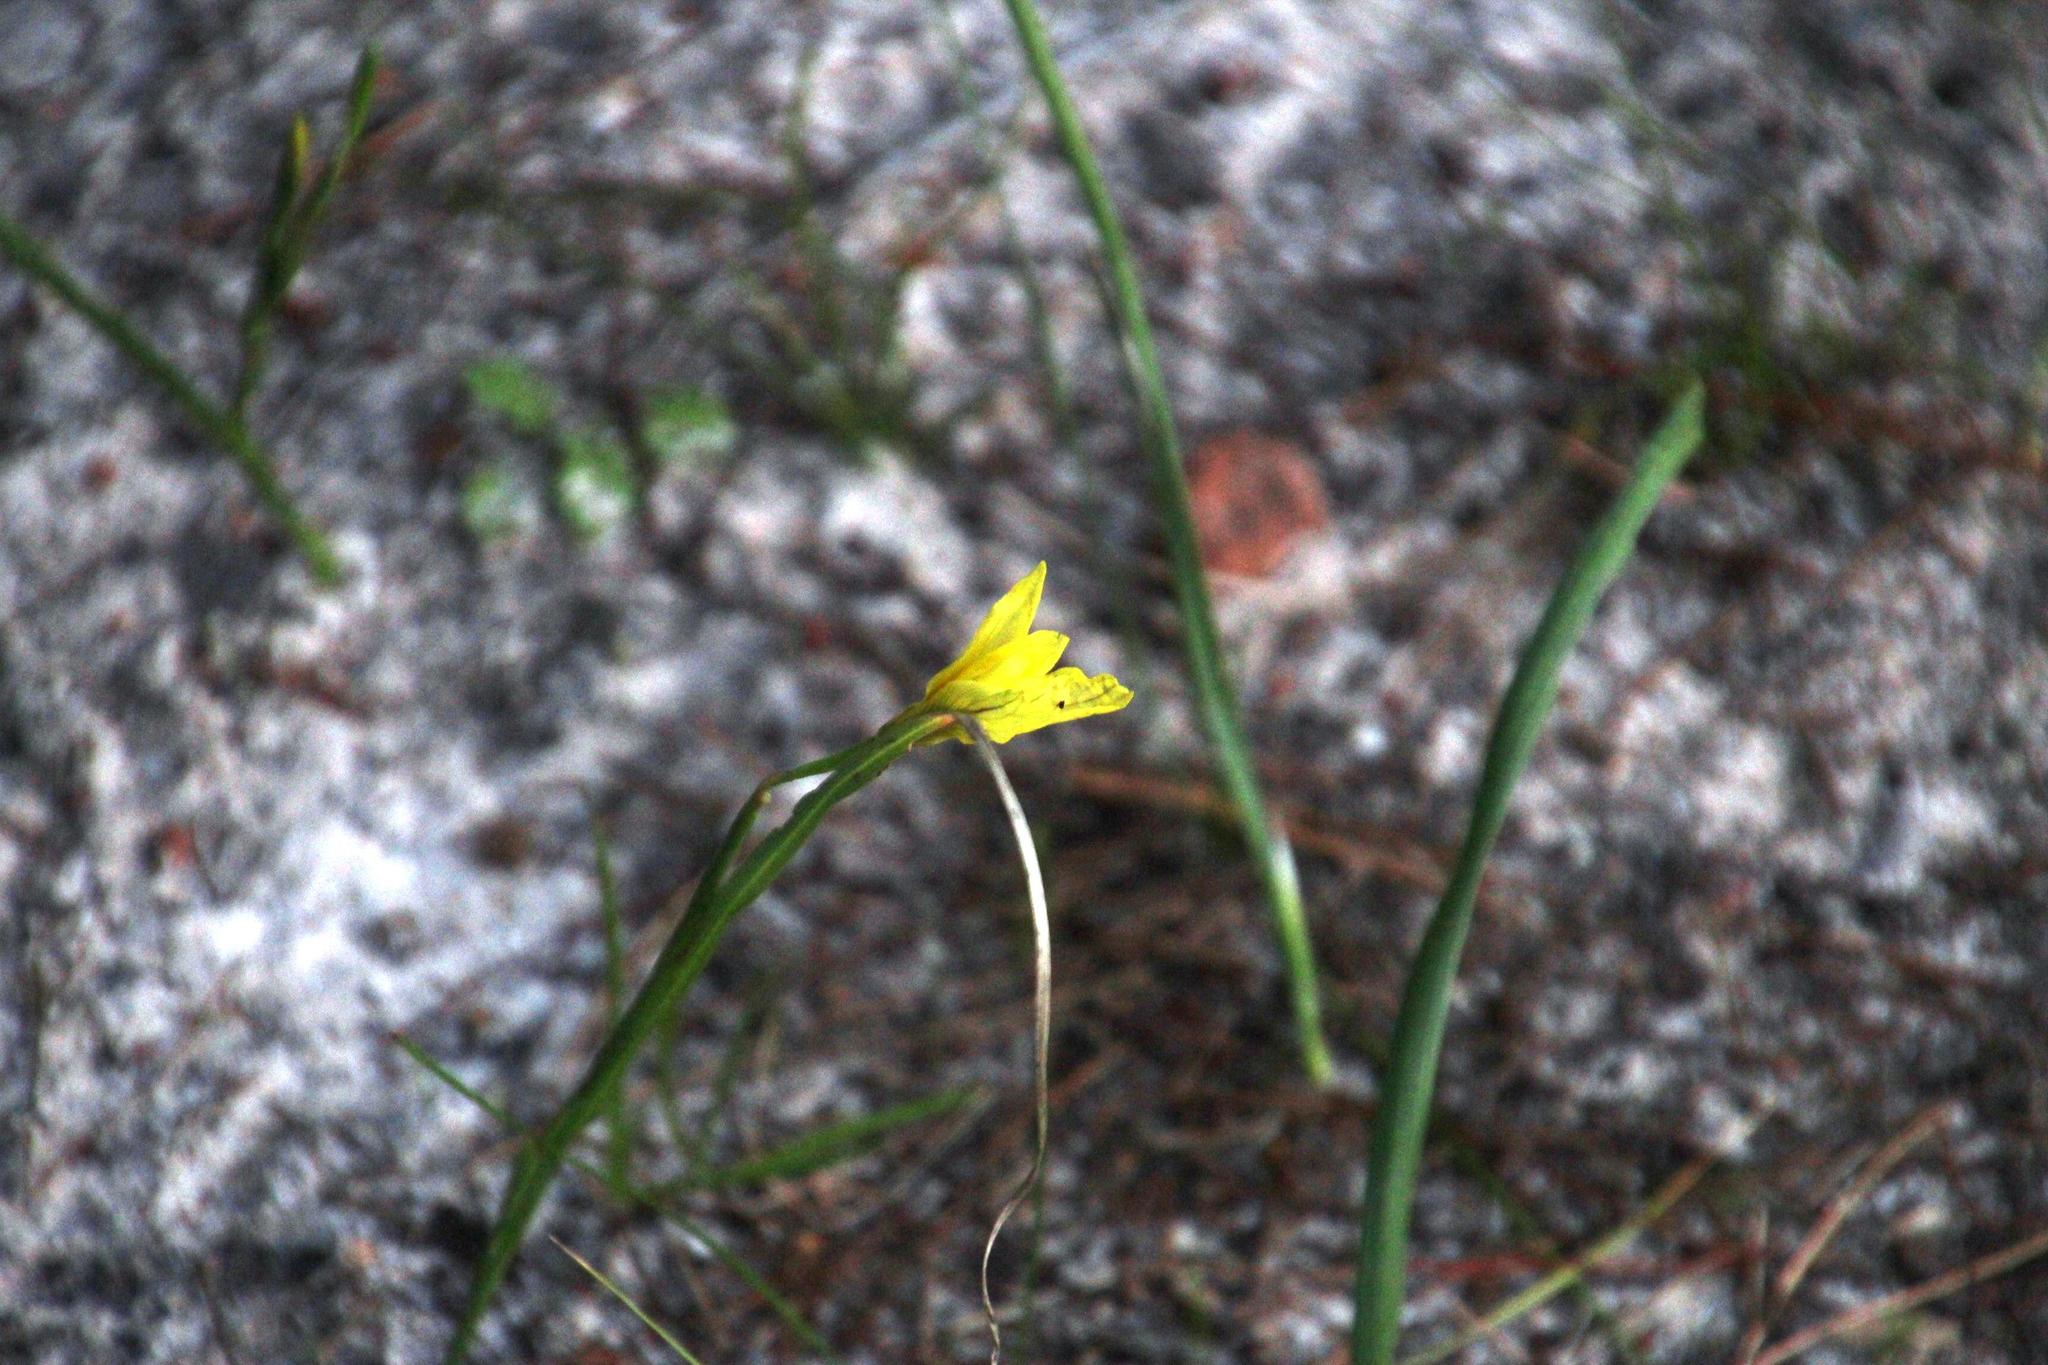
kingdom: Plantae
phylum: Tracheophyta
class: Liliopsida
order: Asparagales
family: Iridaceae
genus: Moraea
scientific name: Moraea collina
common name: Cape-tulip
